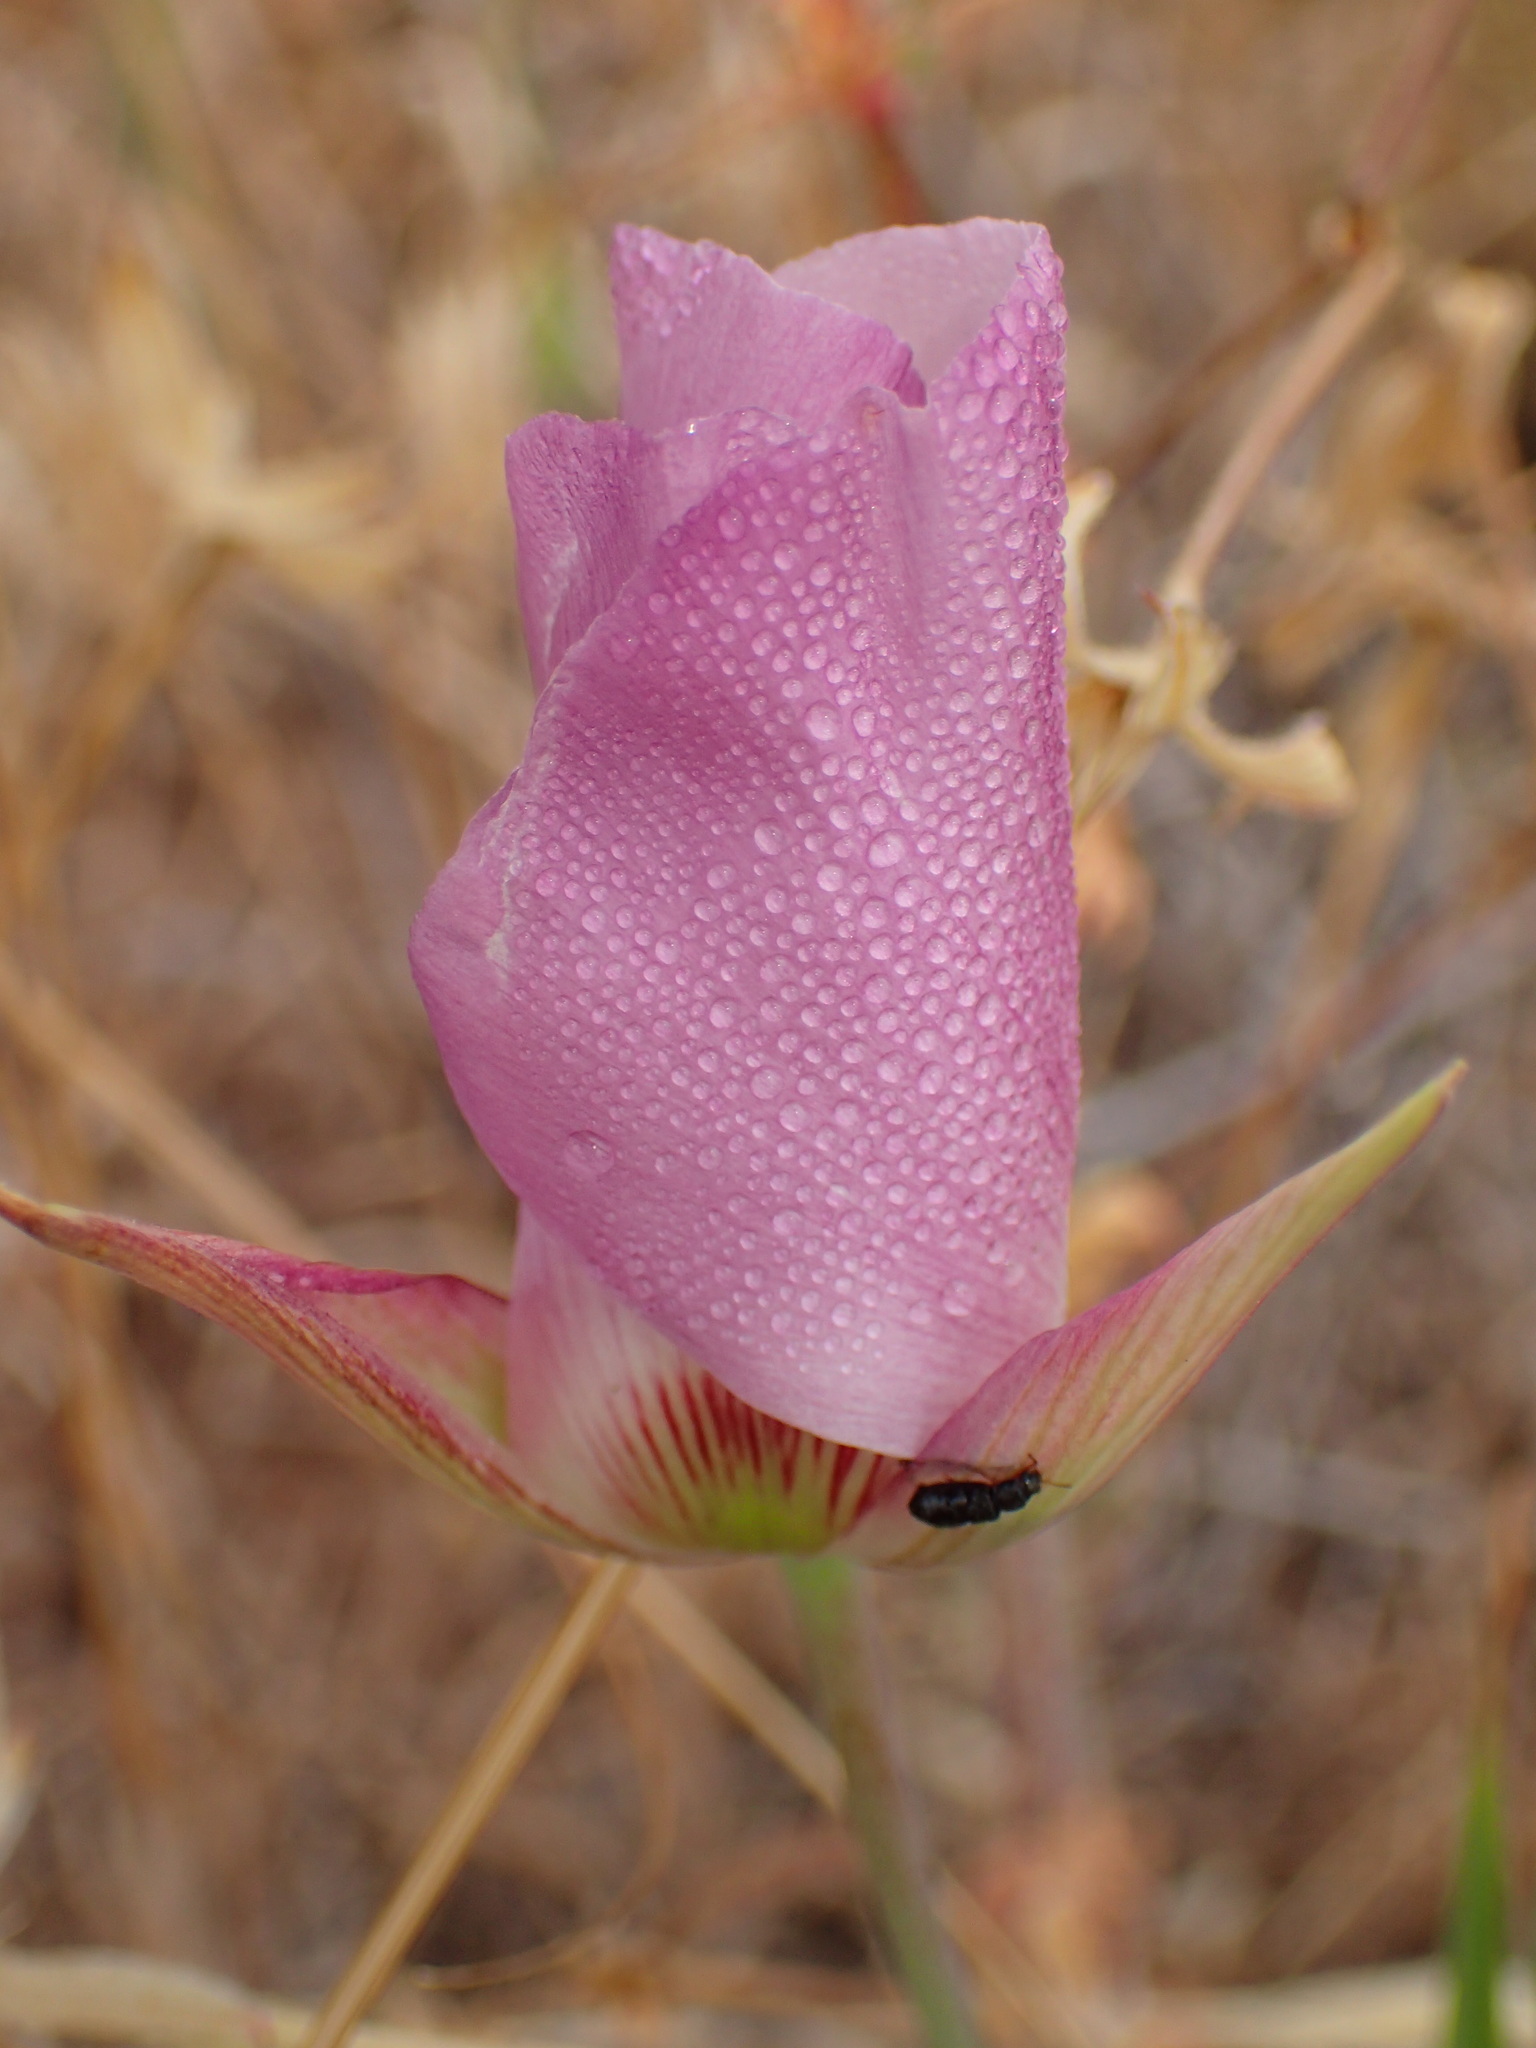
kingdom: Plantae
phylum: Tracheophyta
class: Liliopsida
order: Liliales
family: Liliaceae
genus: Calochortus
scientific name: Calochortus catalinae
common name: Catalina mariposa-lily
